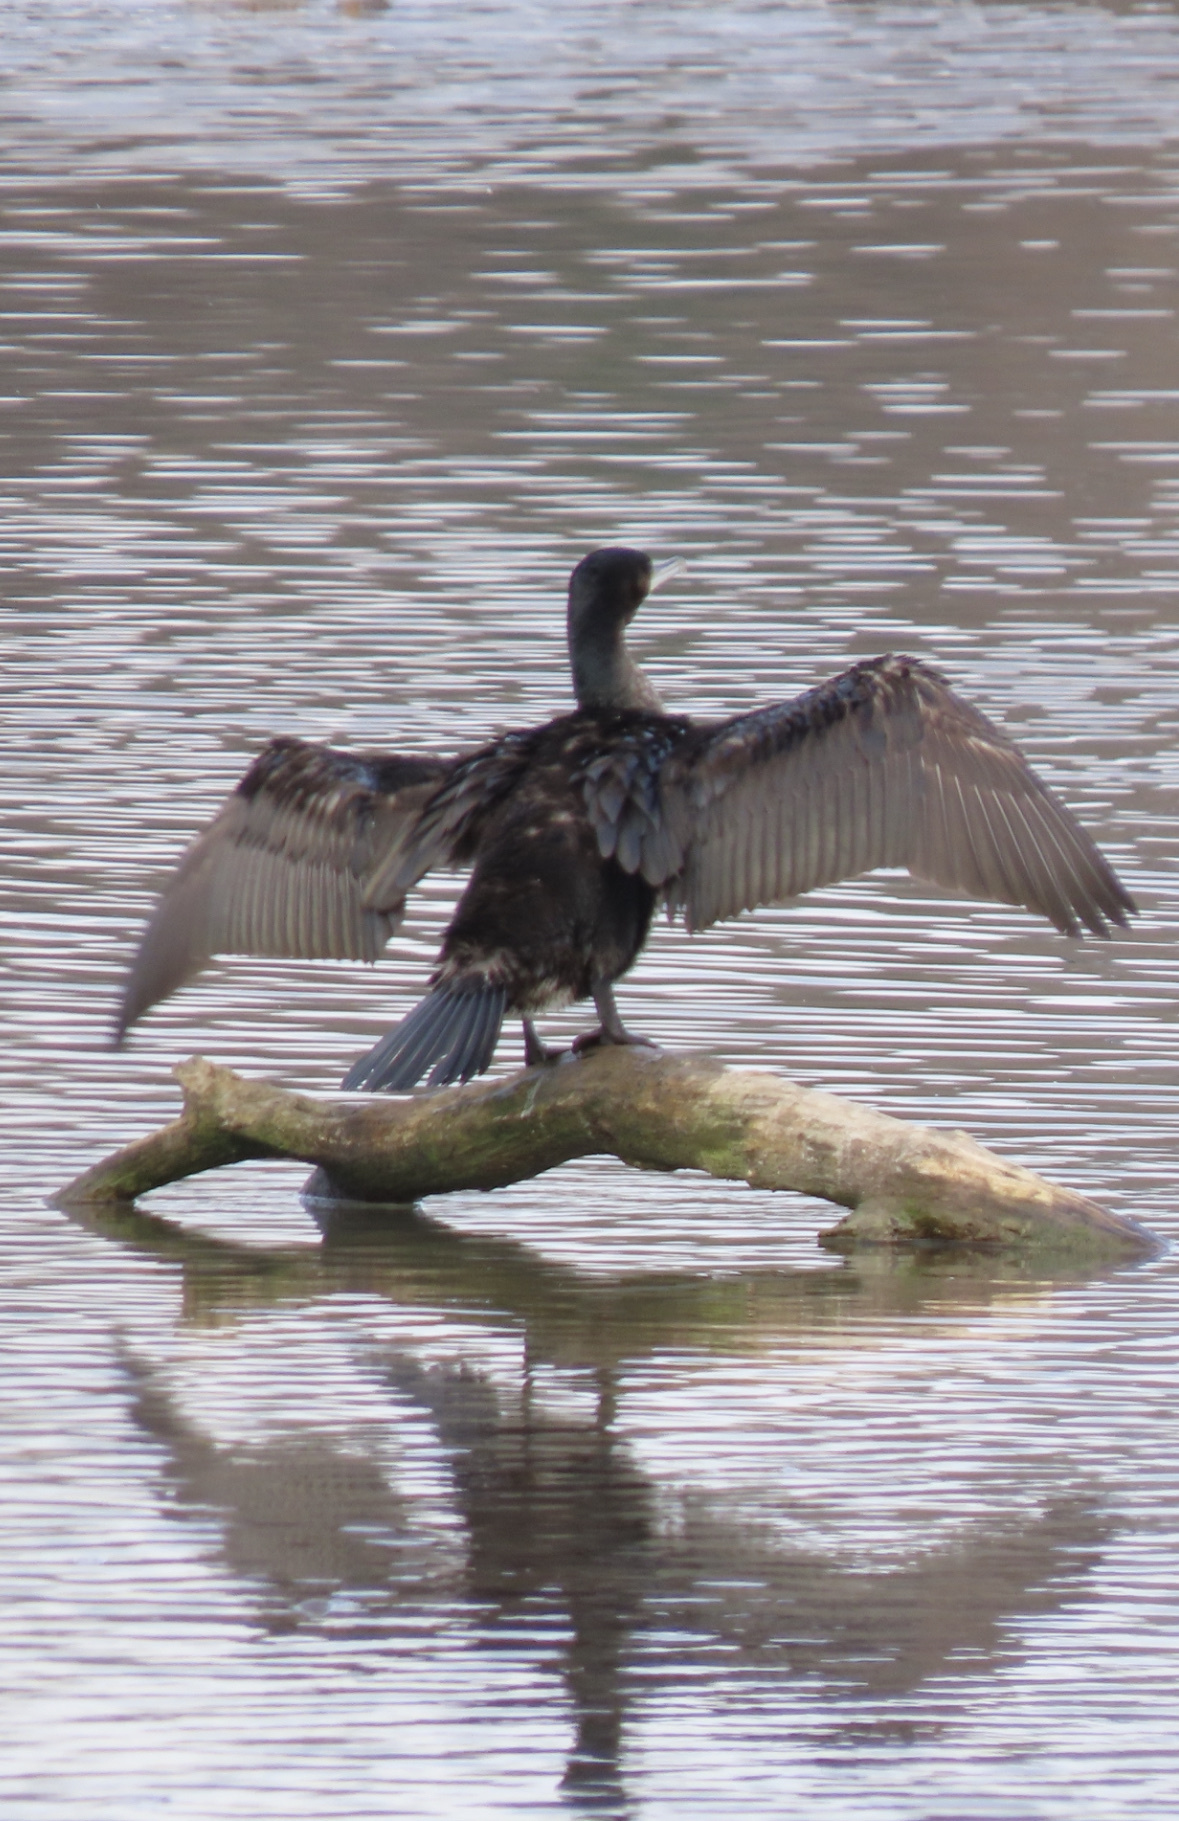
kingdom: Animalia
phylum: Chordata
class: Aves
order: Suliformes
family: Phalacrocoracidae
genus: Phalacrocorax
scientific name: Phalacrocorax carbo
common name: Great cormorant
